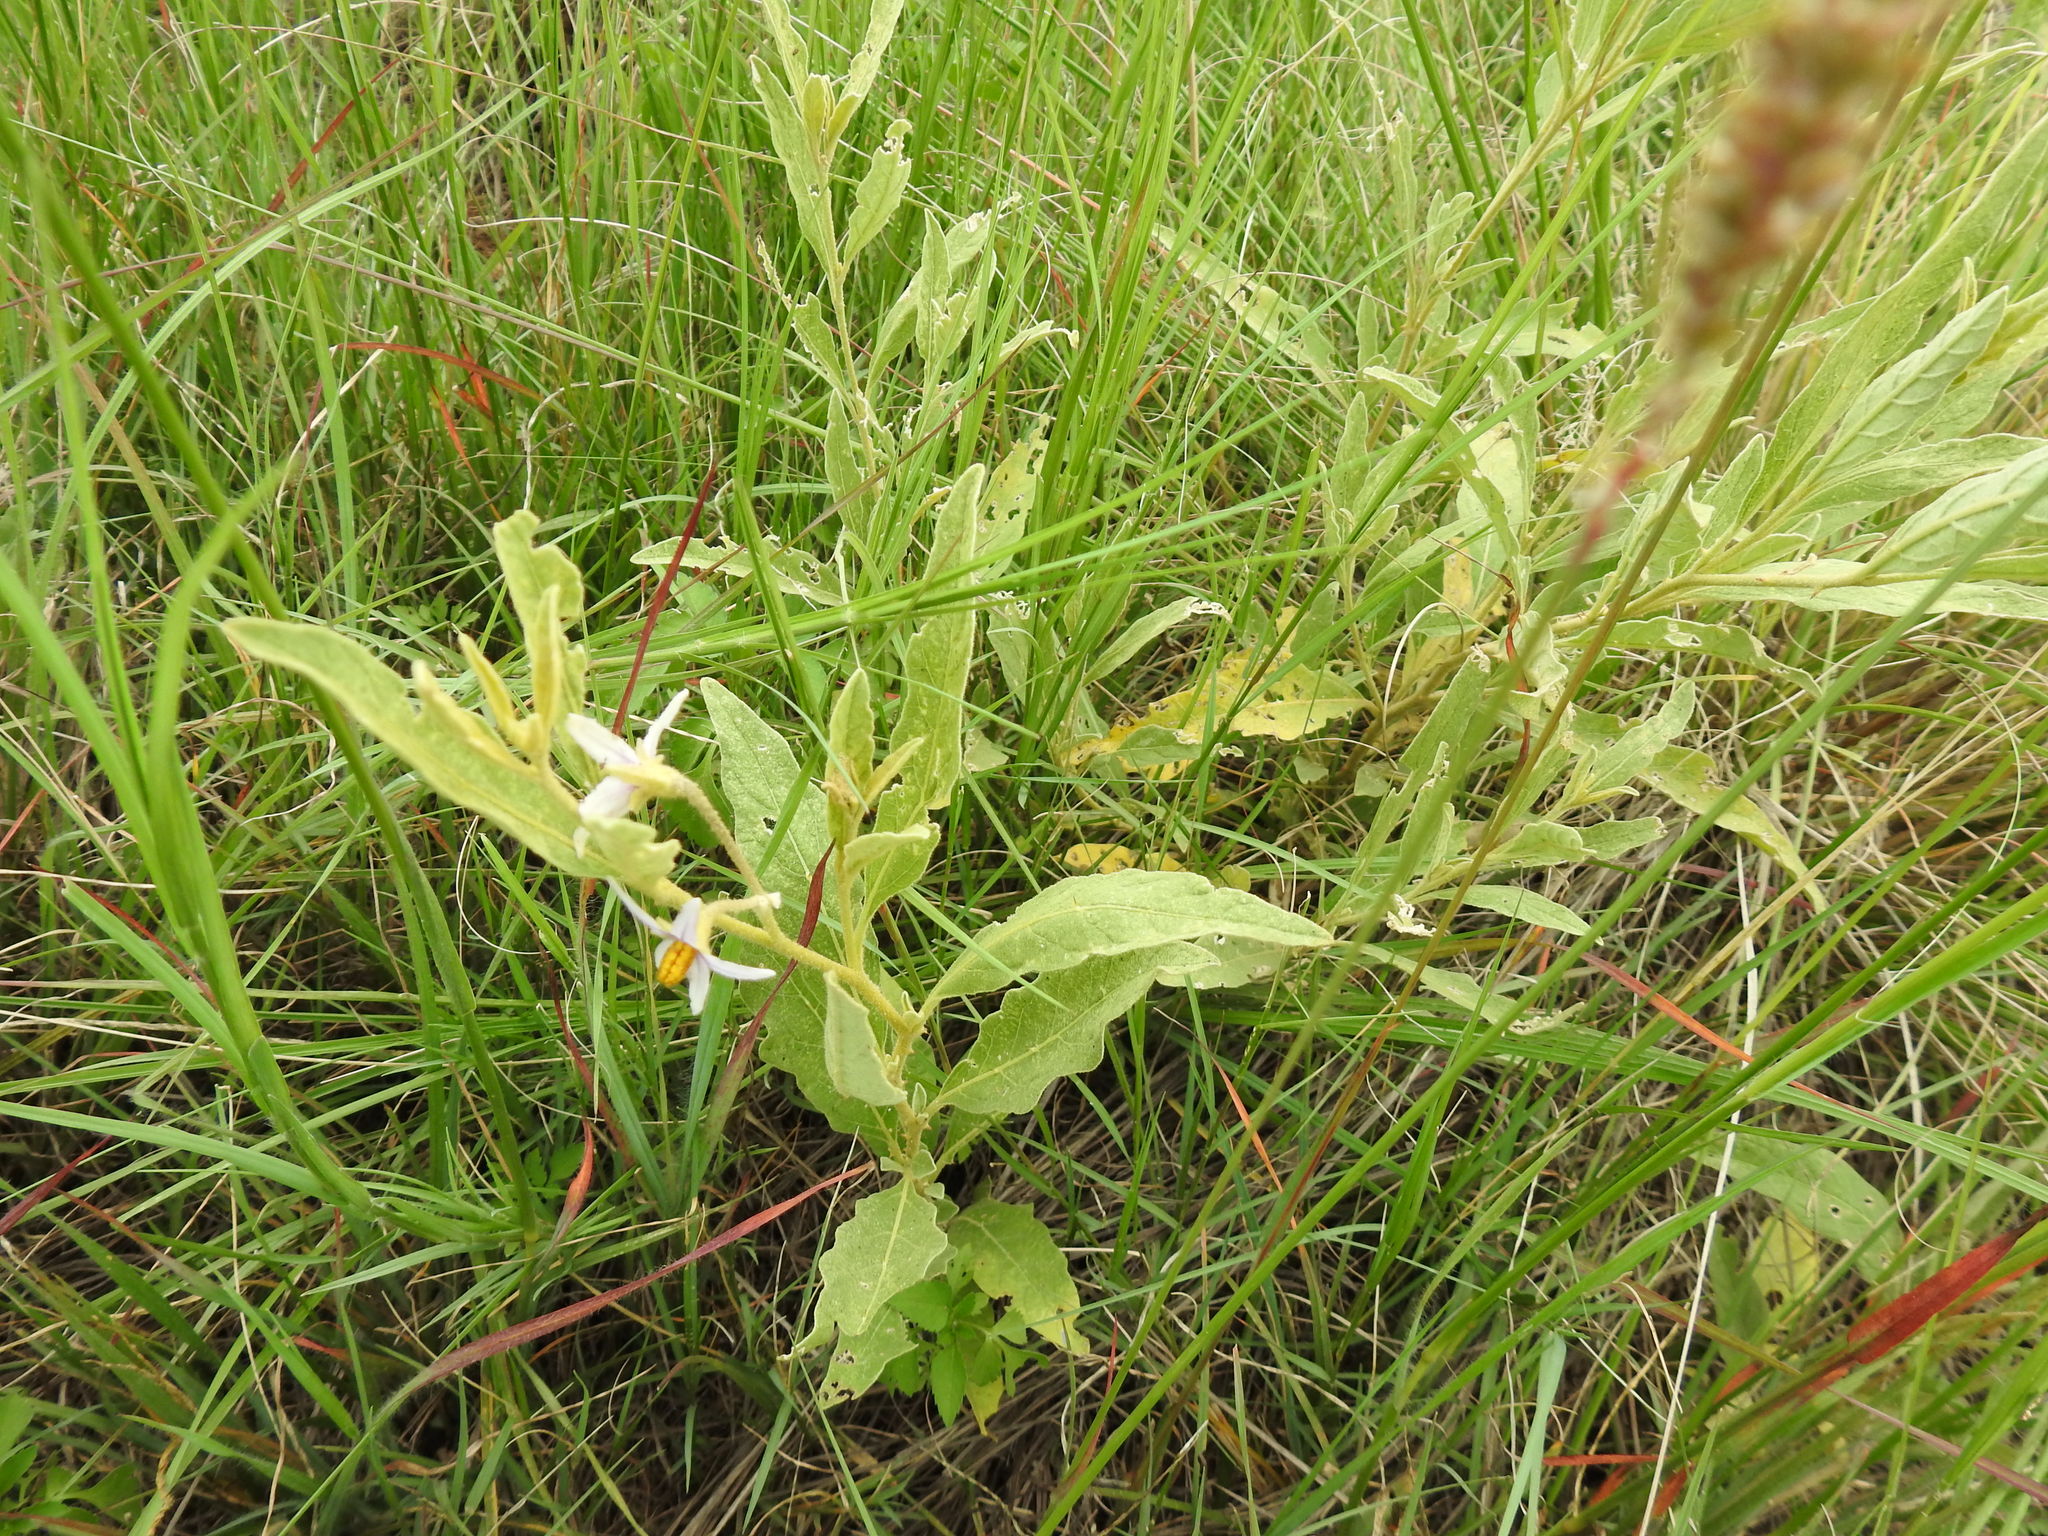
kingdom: Plantae
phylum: Tracheophyta
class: Magnoliopsida
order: Solanales
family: Solanaceae
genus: Solanum
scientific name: Solanum campylacanthum
